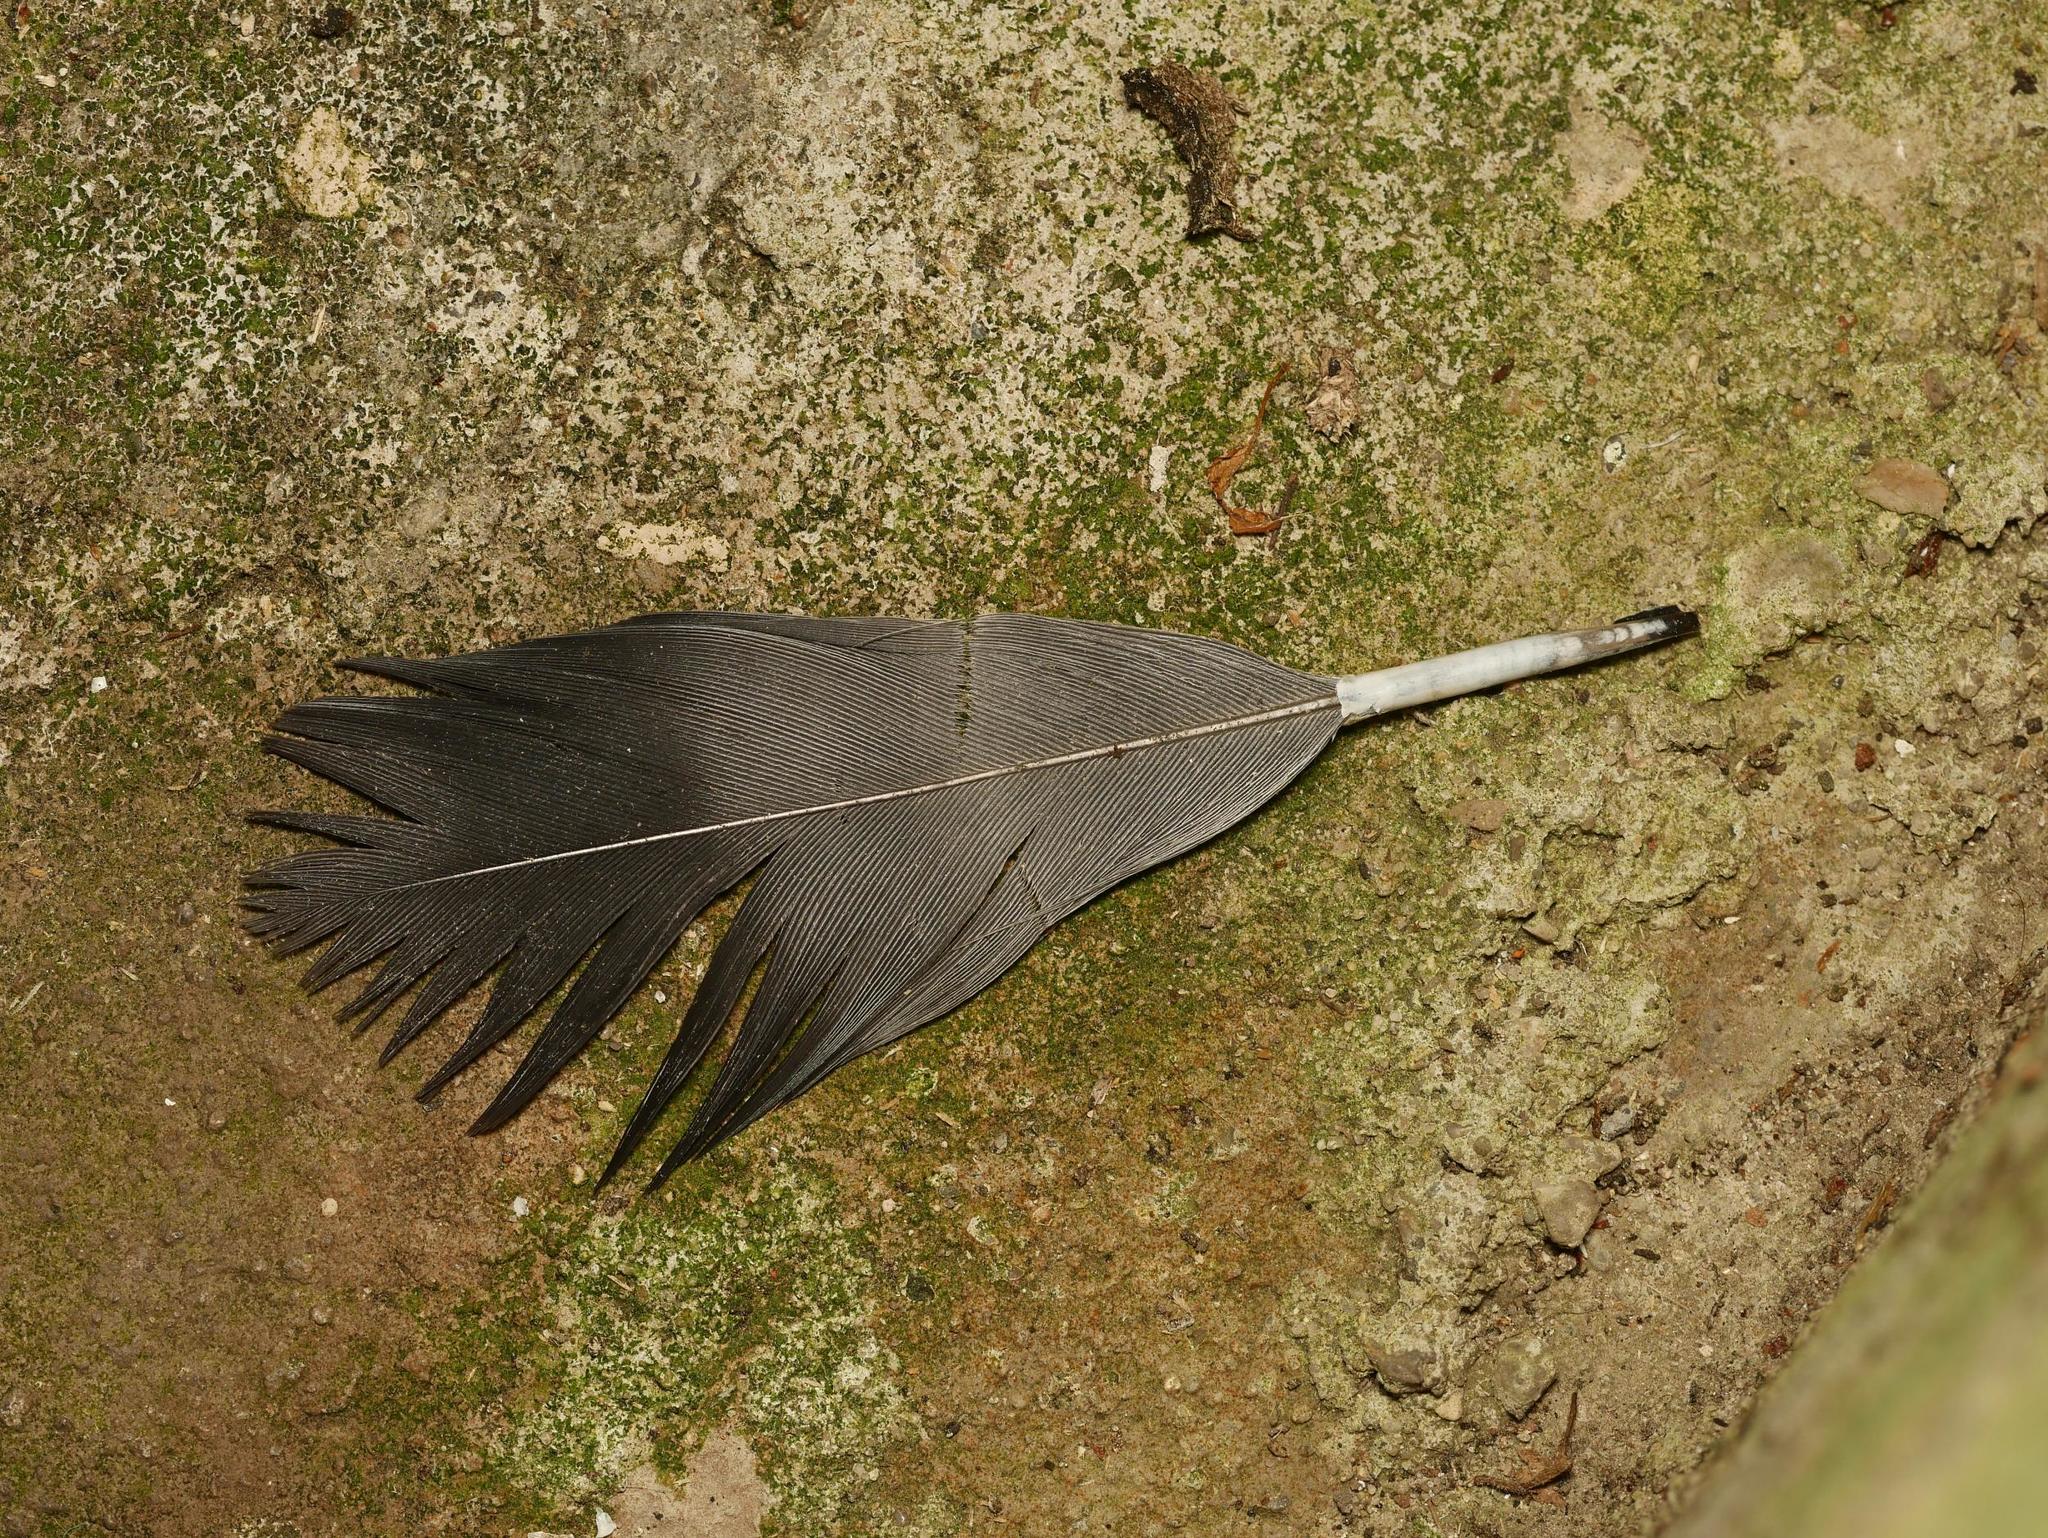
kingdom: Animalia
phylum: Chordata
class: Aves
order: Columbiformes
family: Columbidae
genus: Columba
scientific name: Columba livia
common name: Rock pigeon
